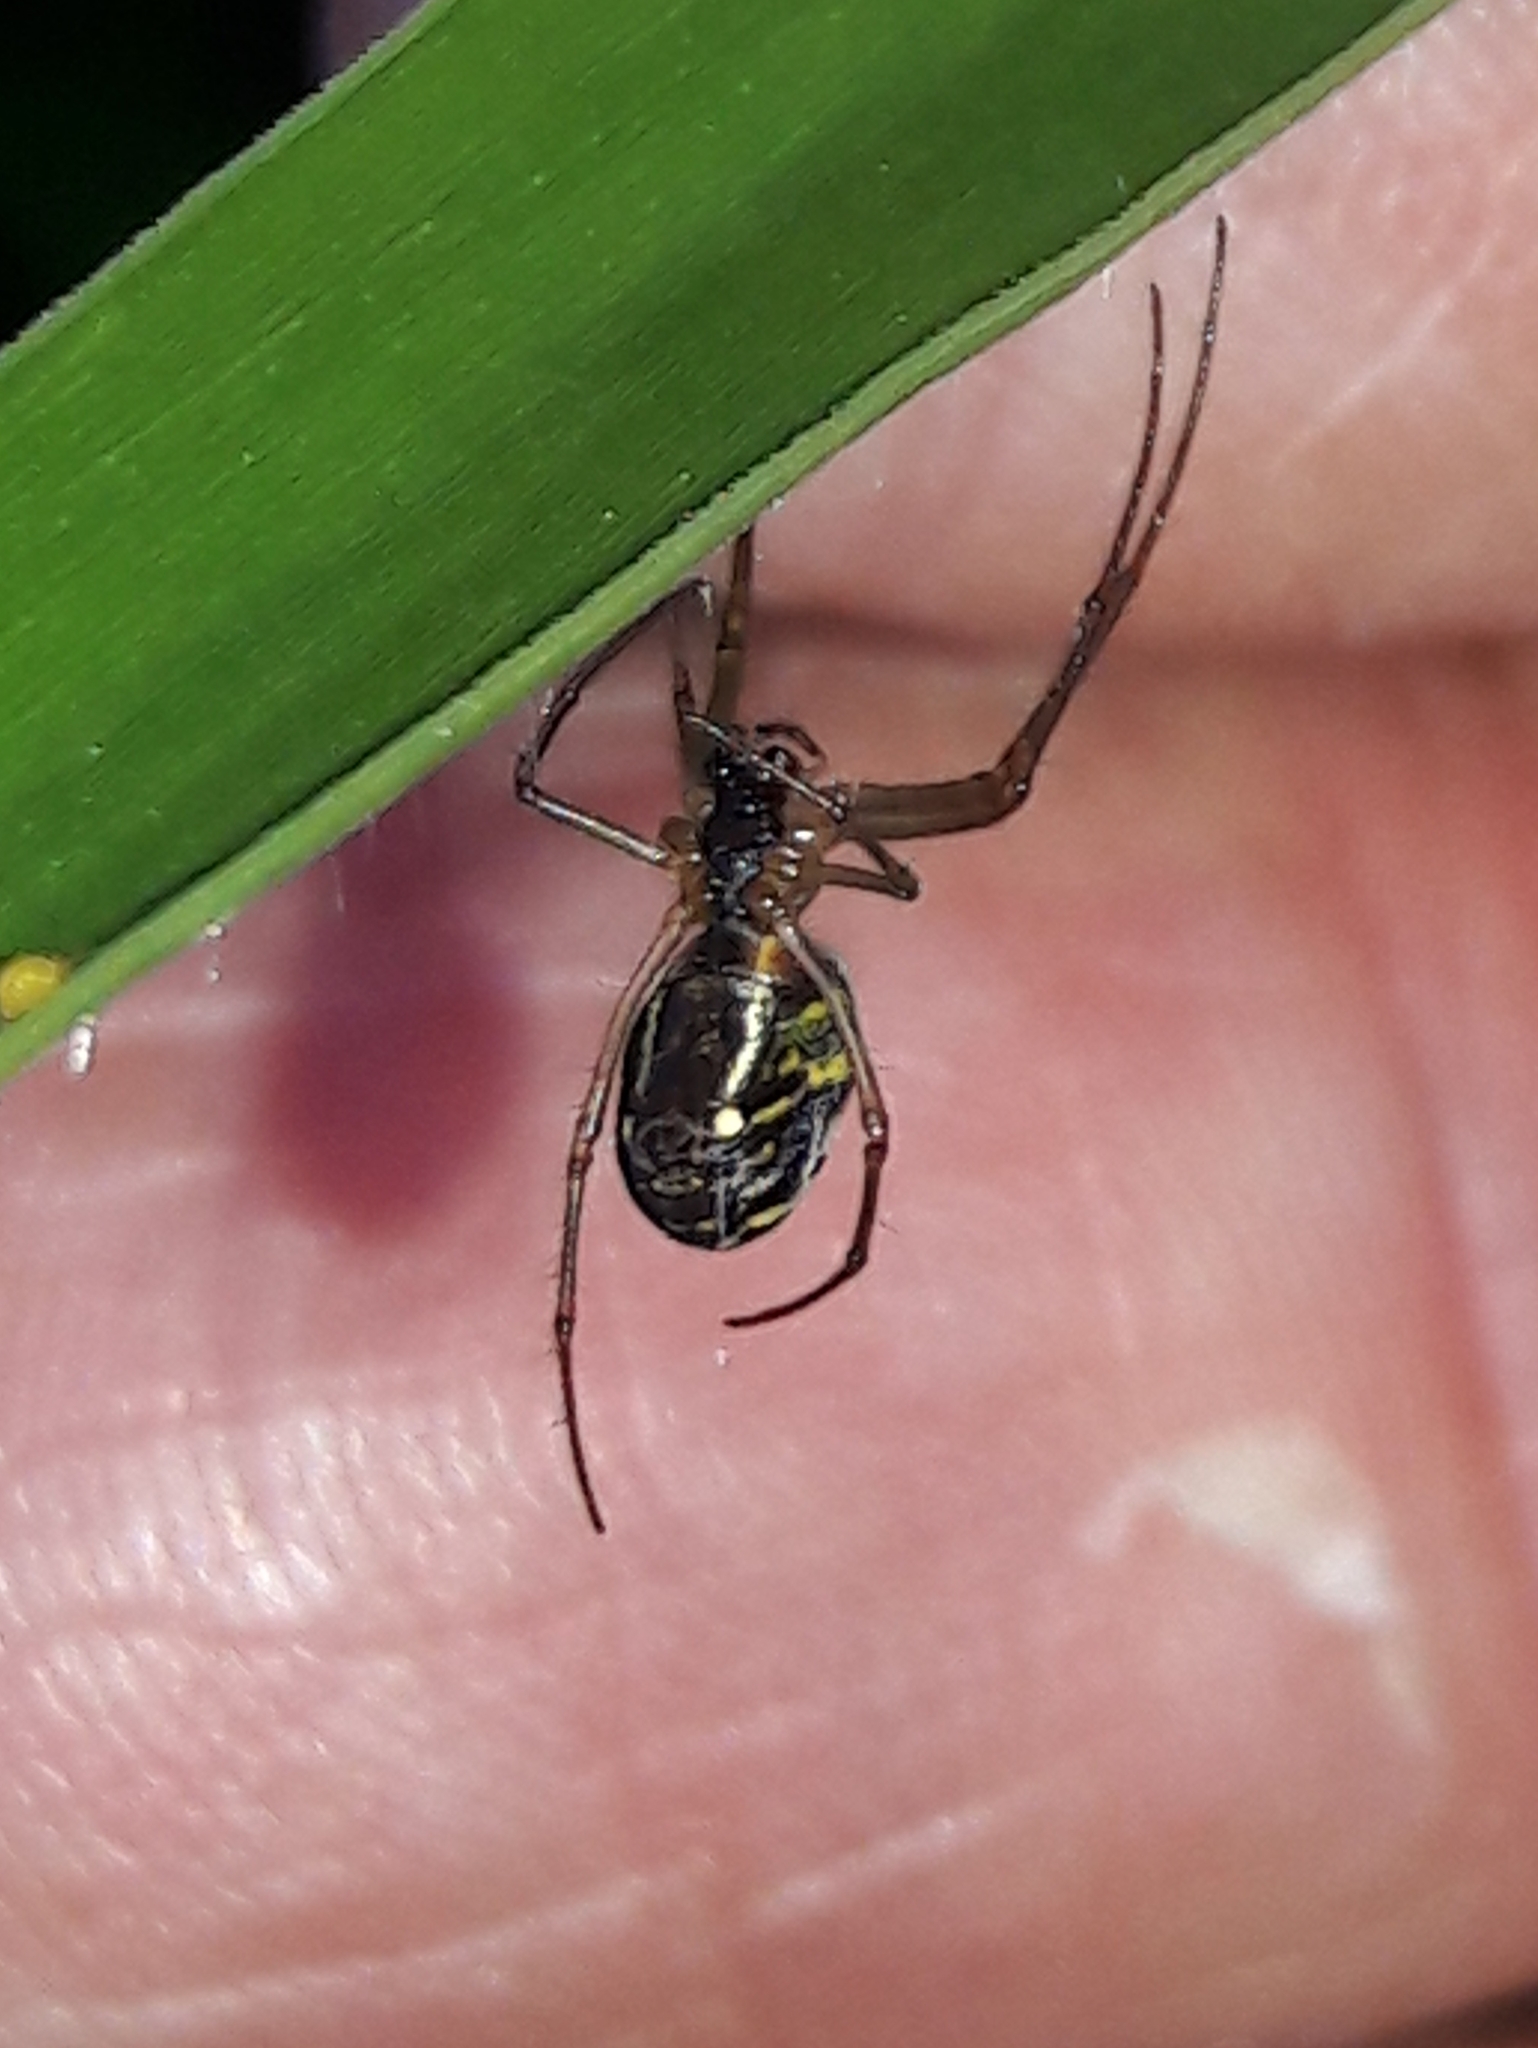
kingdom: Animalia
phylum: Arthropoda
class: Arachnida
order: Araneae
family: Tetragnathidae
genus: Leucauge
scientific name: Leucauge volupis
